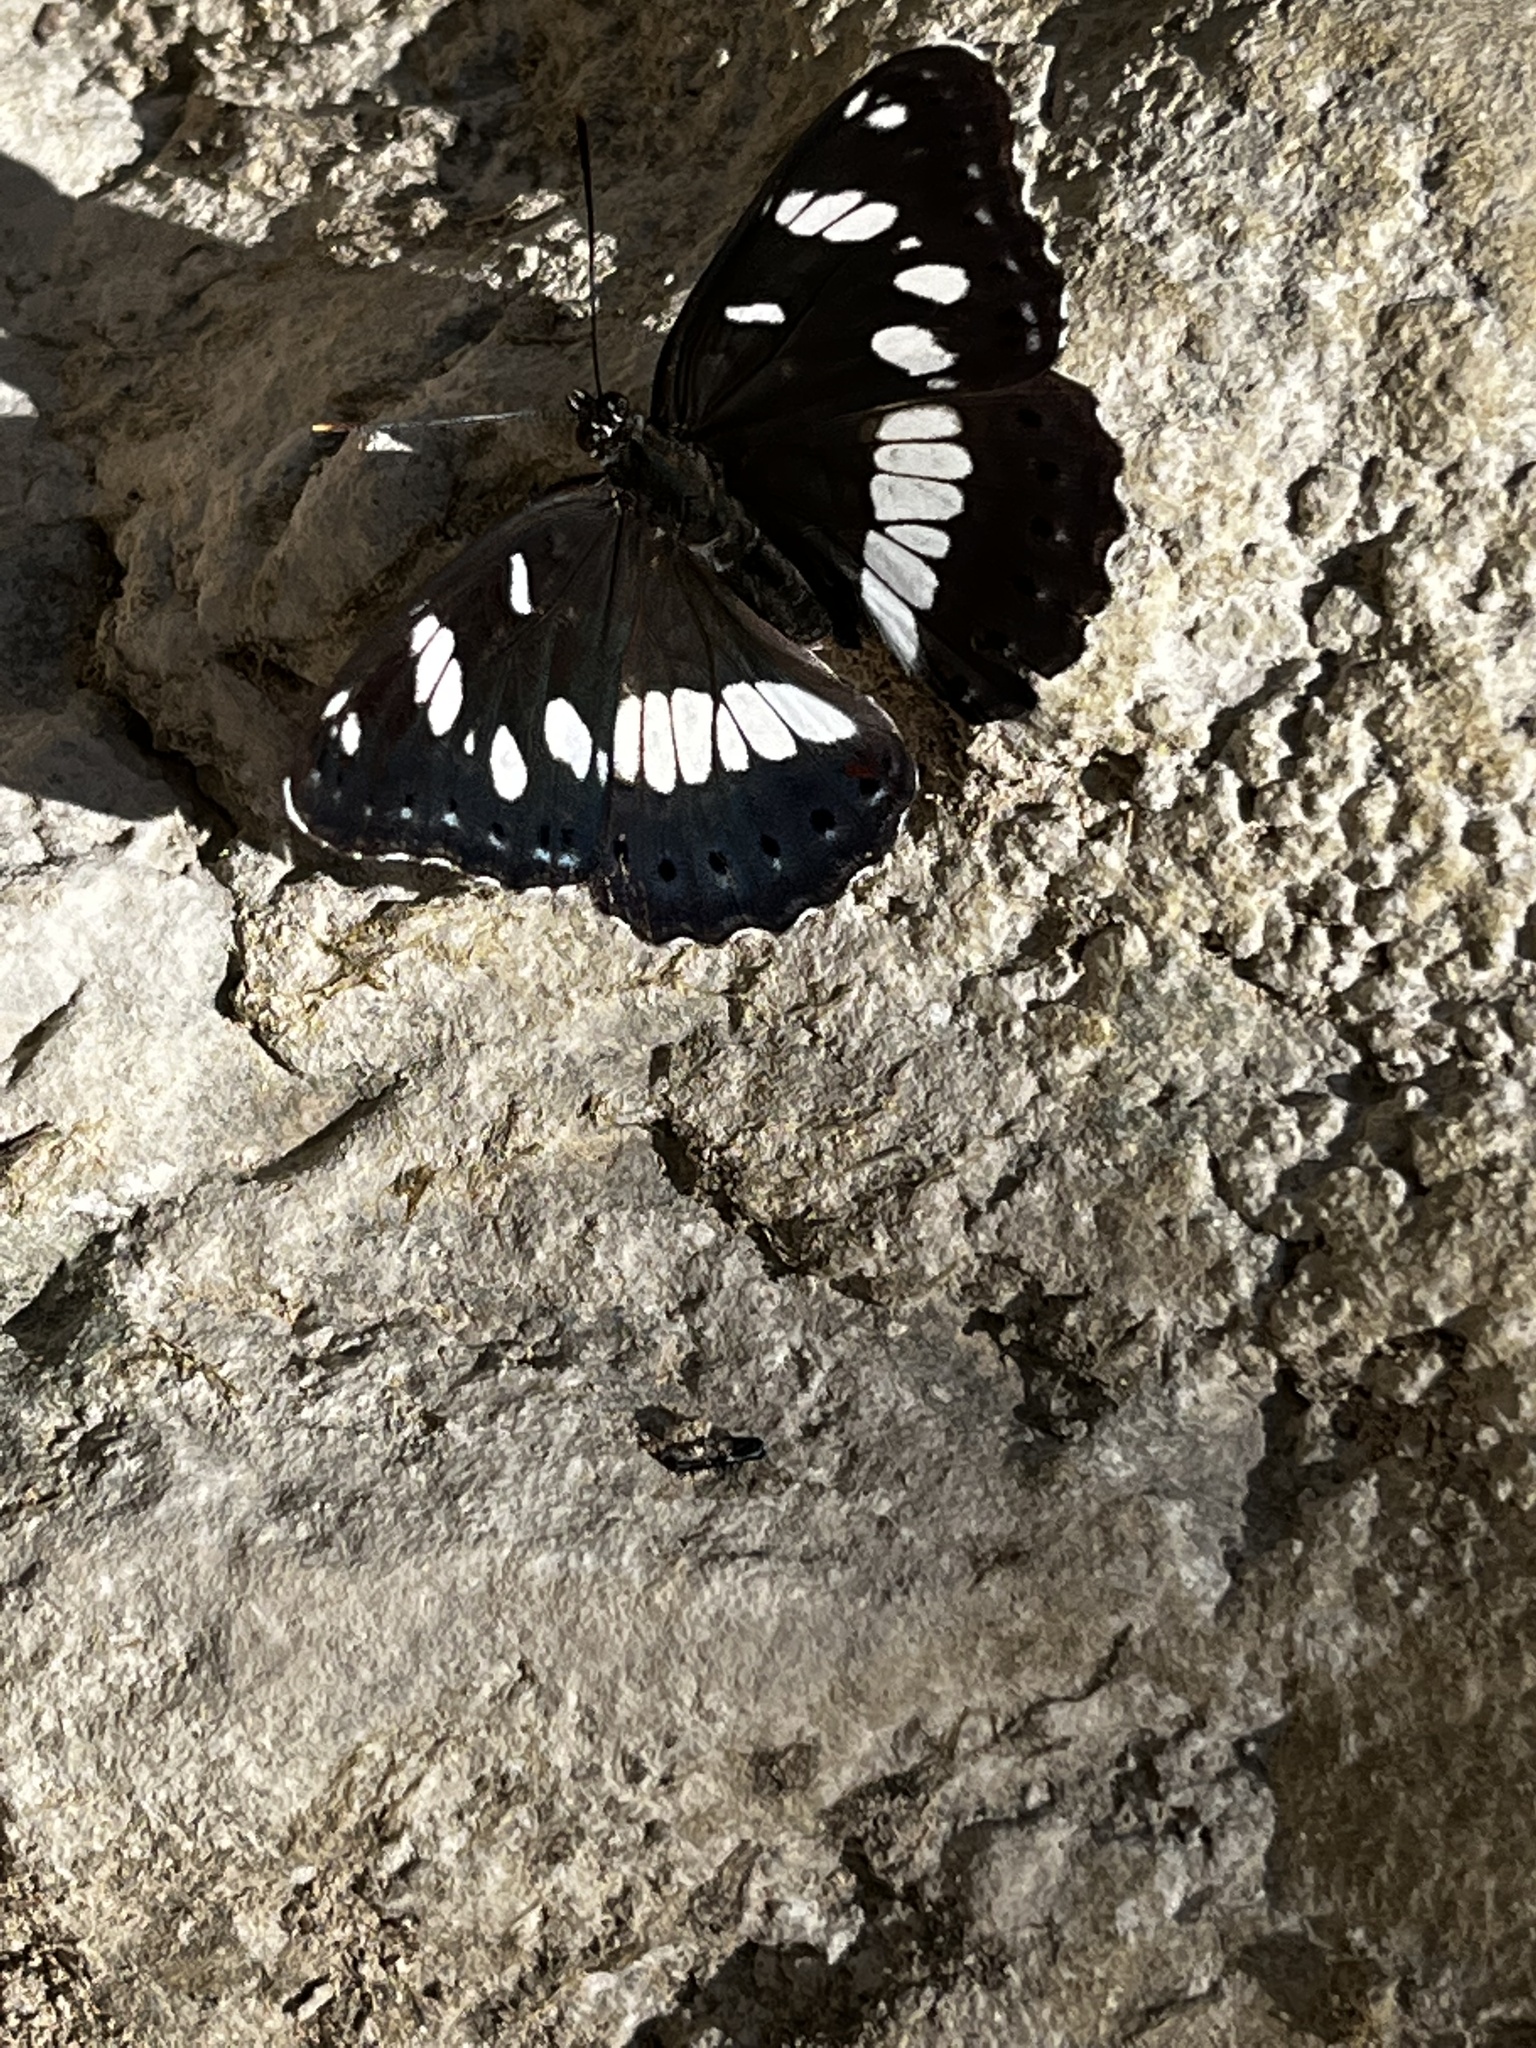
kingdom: Animalia
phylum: Arthropoda
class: Insecta
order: Lepidoptera
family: Nymphalidae
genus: Limenitis
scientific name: Limenitis reducta
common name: Southern white admiral
